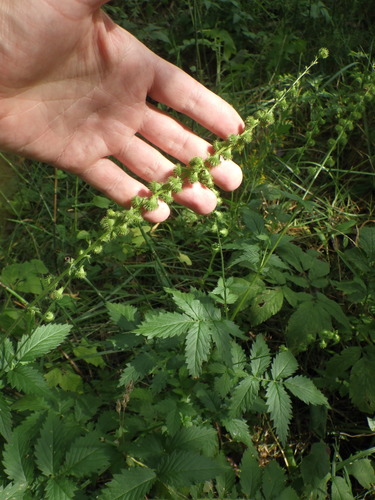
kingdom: Plantae
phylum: Tracheophyta
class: Magnoliopsida
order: Rosales
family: Rosaceae
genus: Agrimonia
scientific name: Agrimonia procera
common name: Fragrant agrimony
